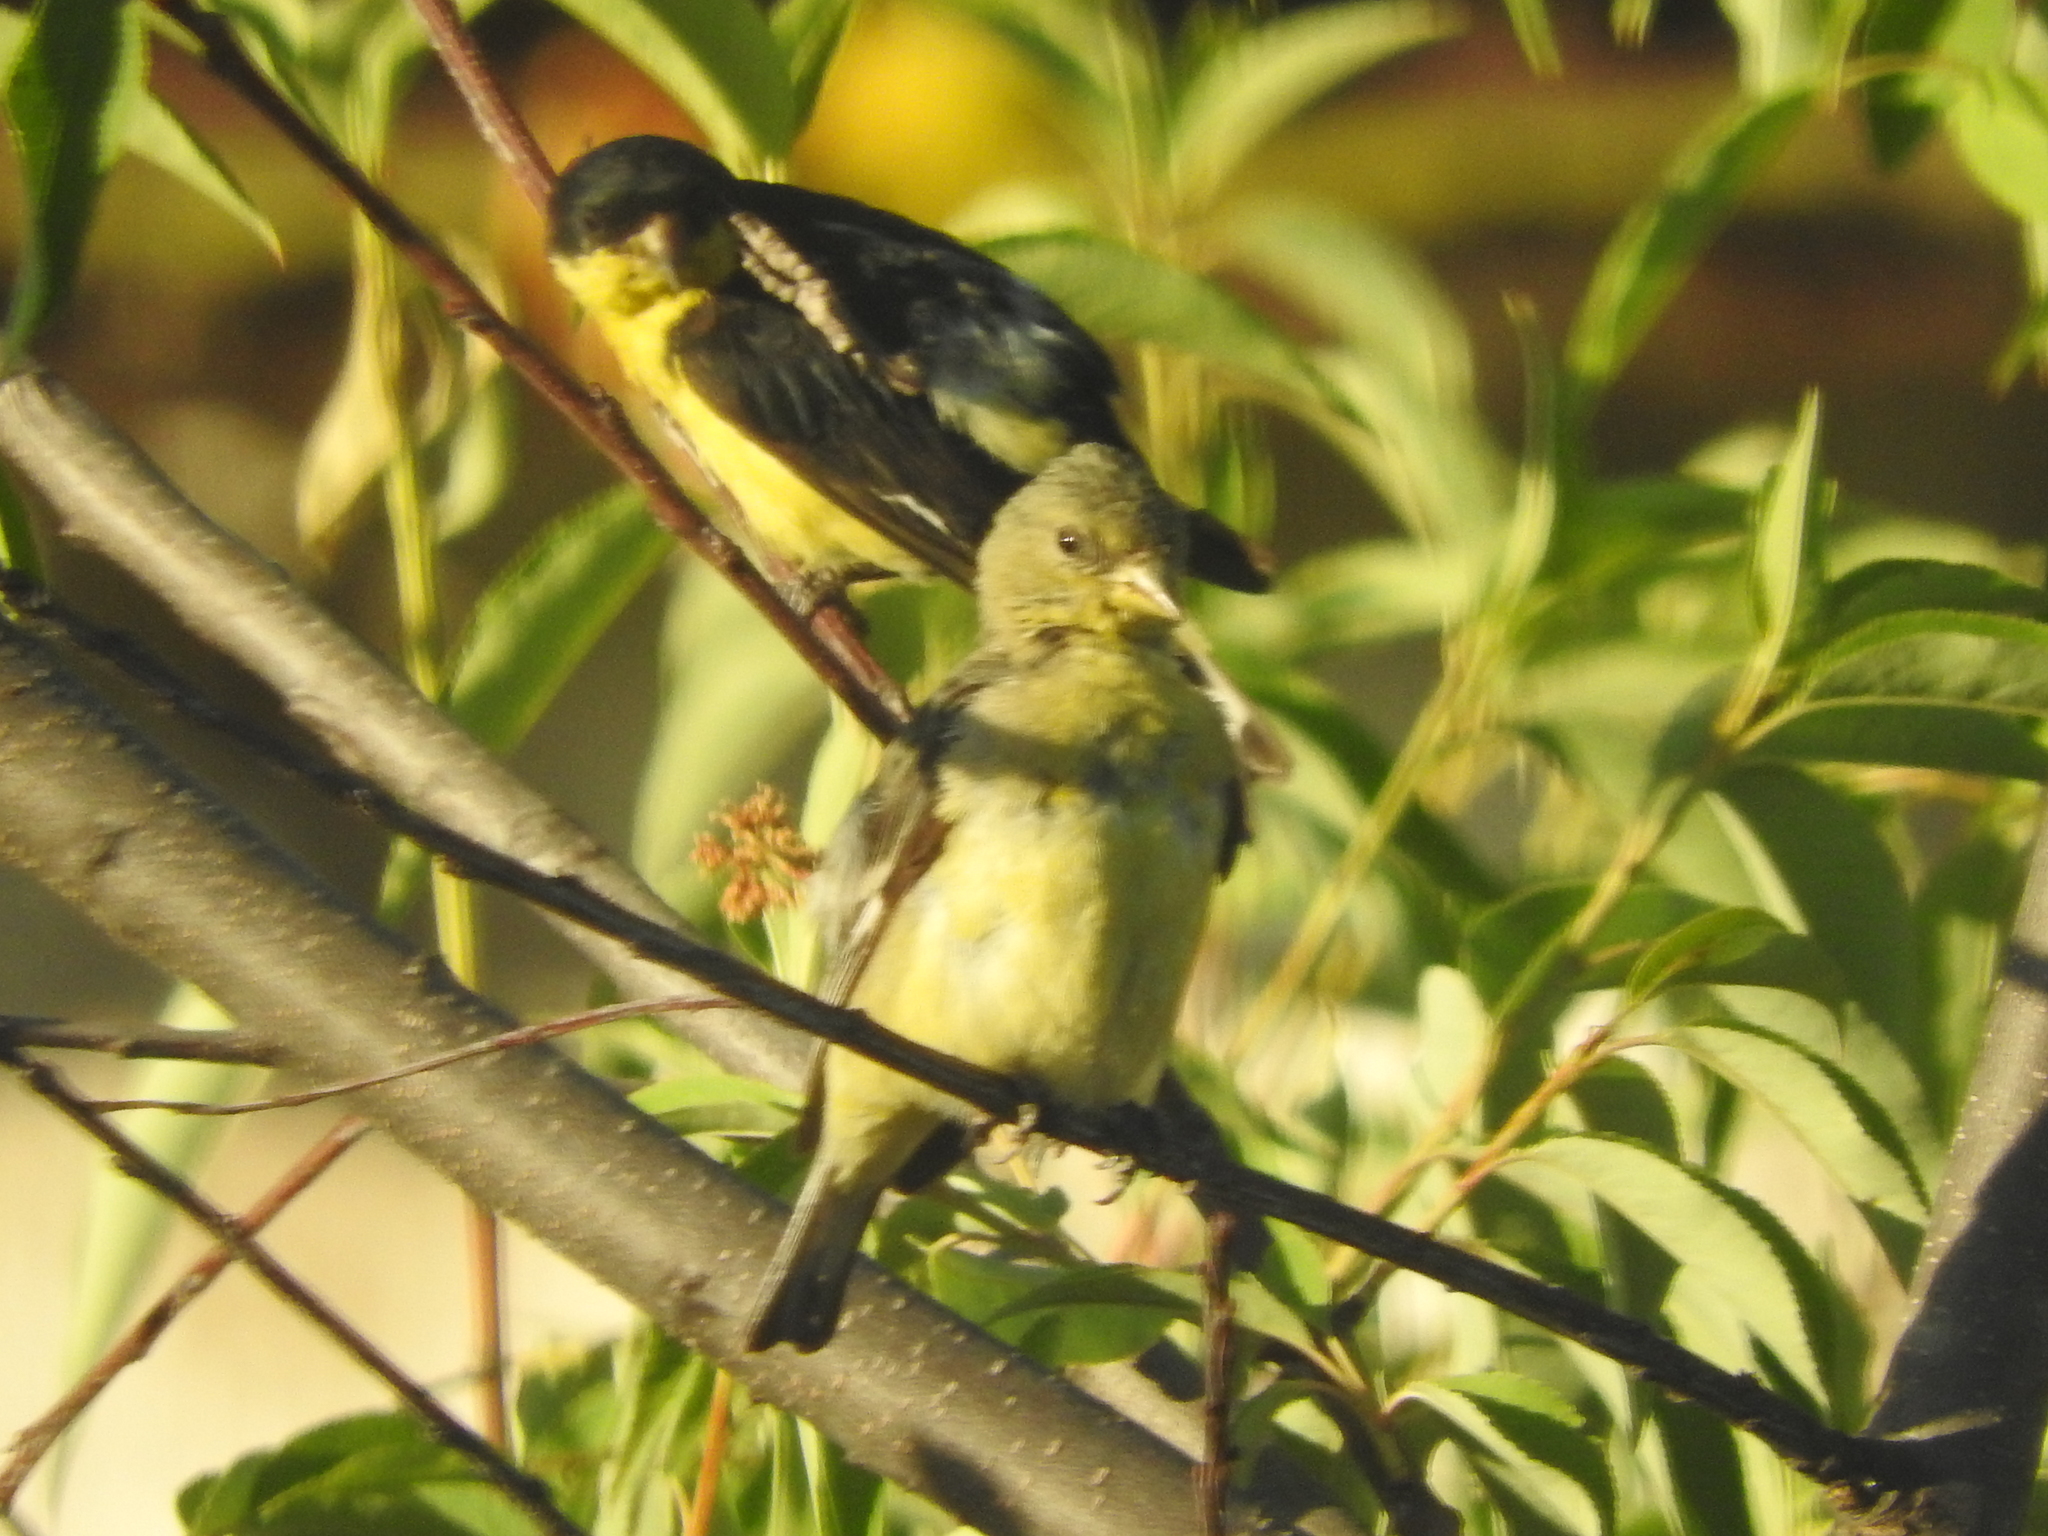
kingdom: Animalia
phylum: Chordata
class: Aves
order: Passeriformes
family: Fringillidae
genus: Spinus
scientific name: Spinus psaltria
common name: Lesser goldfinch
